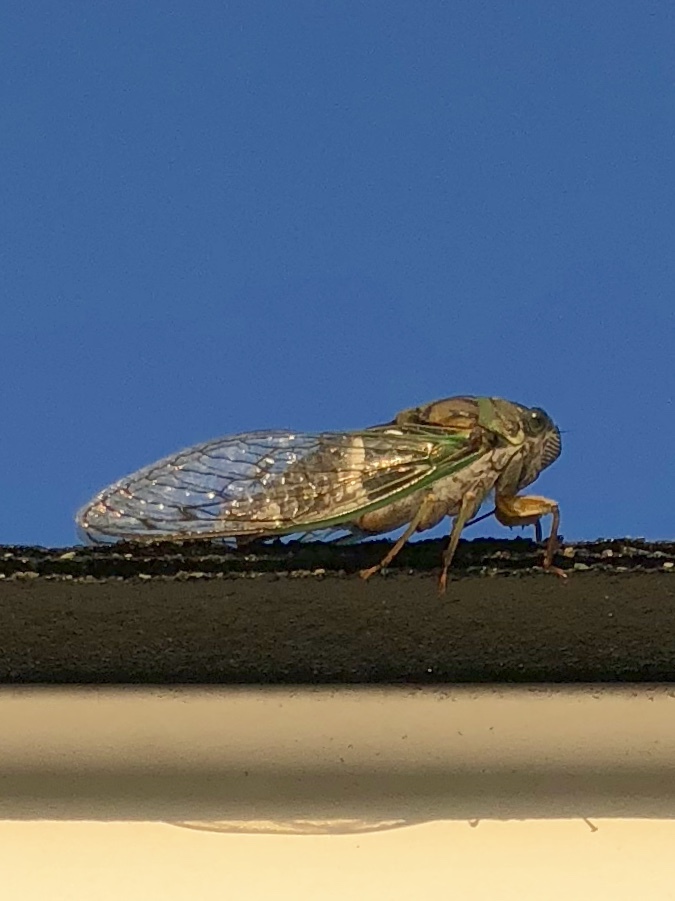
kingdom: Animalia
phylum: Arthropoda
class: Insecta
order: Hemiptera
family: Cicadidae
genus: Neotibicen
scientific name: Neotibicen latifasciatus
